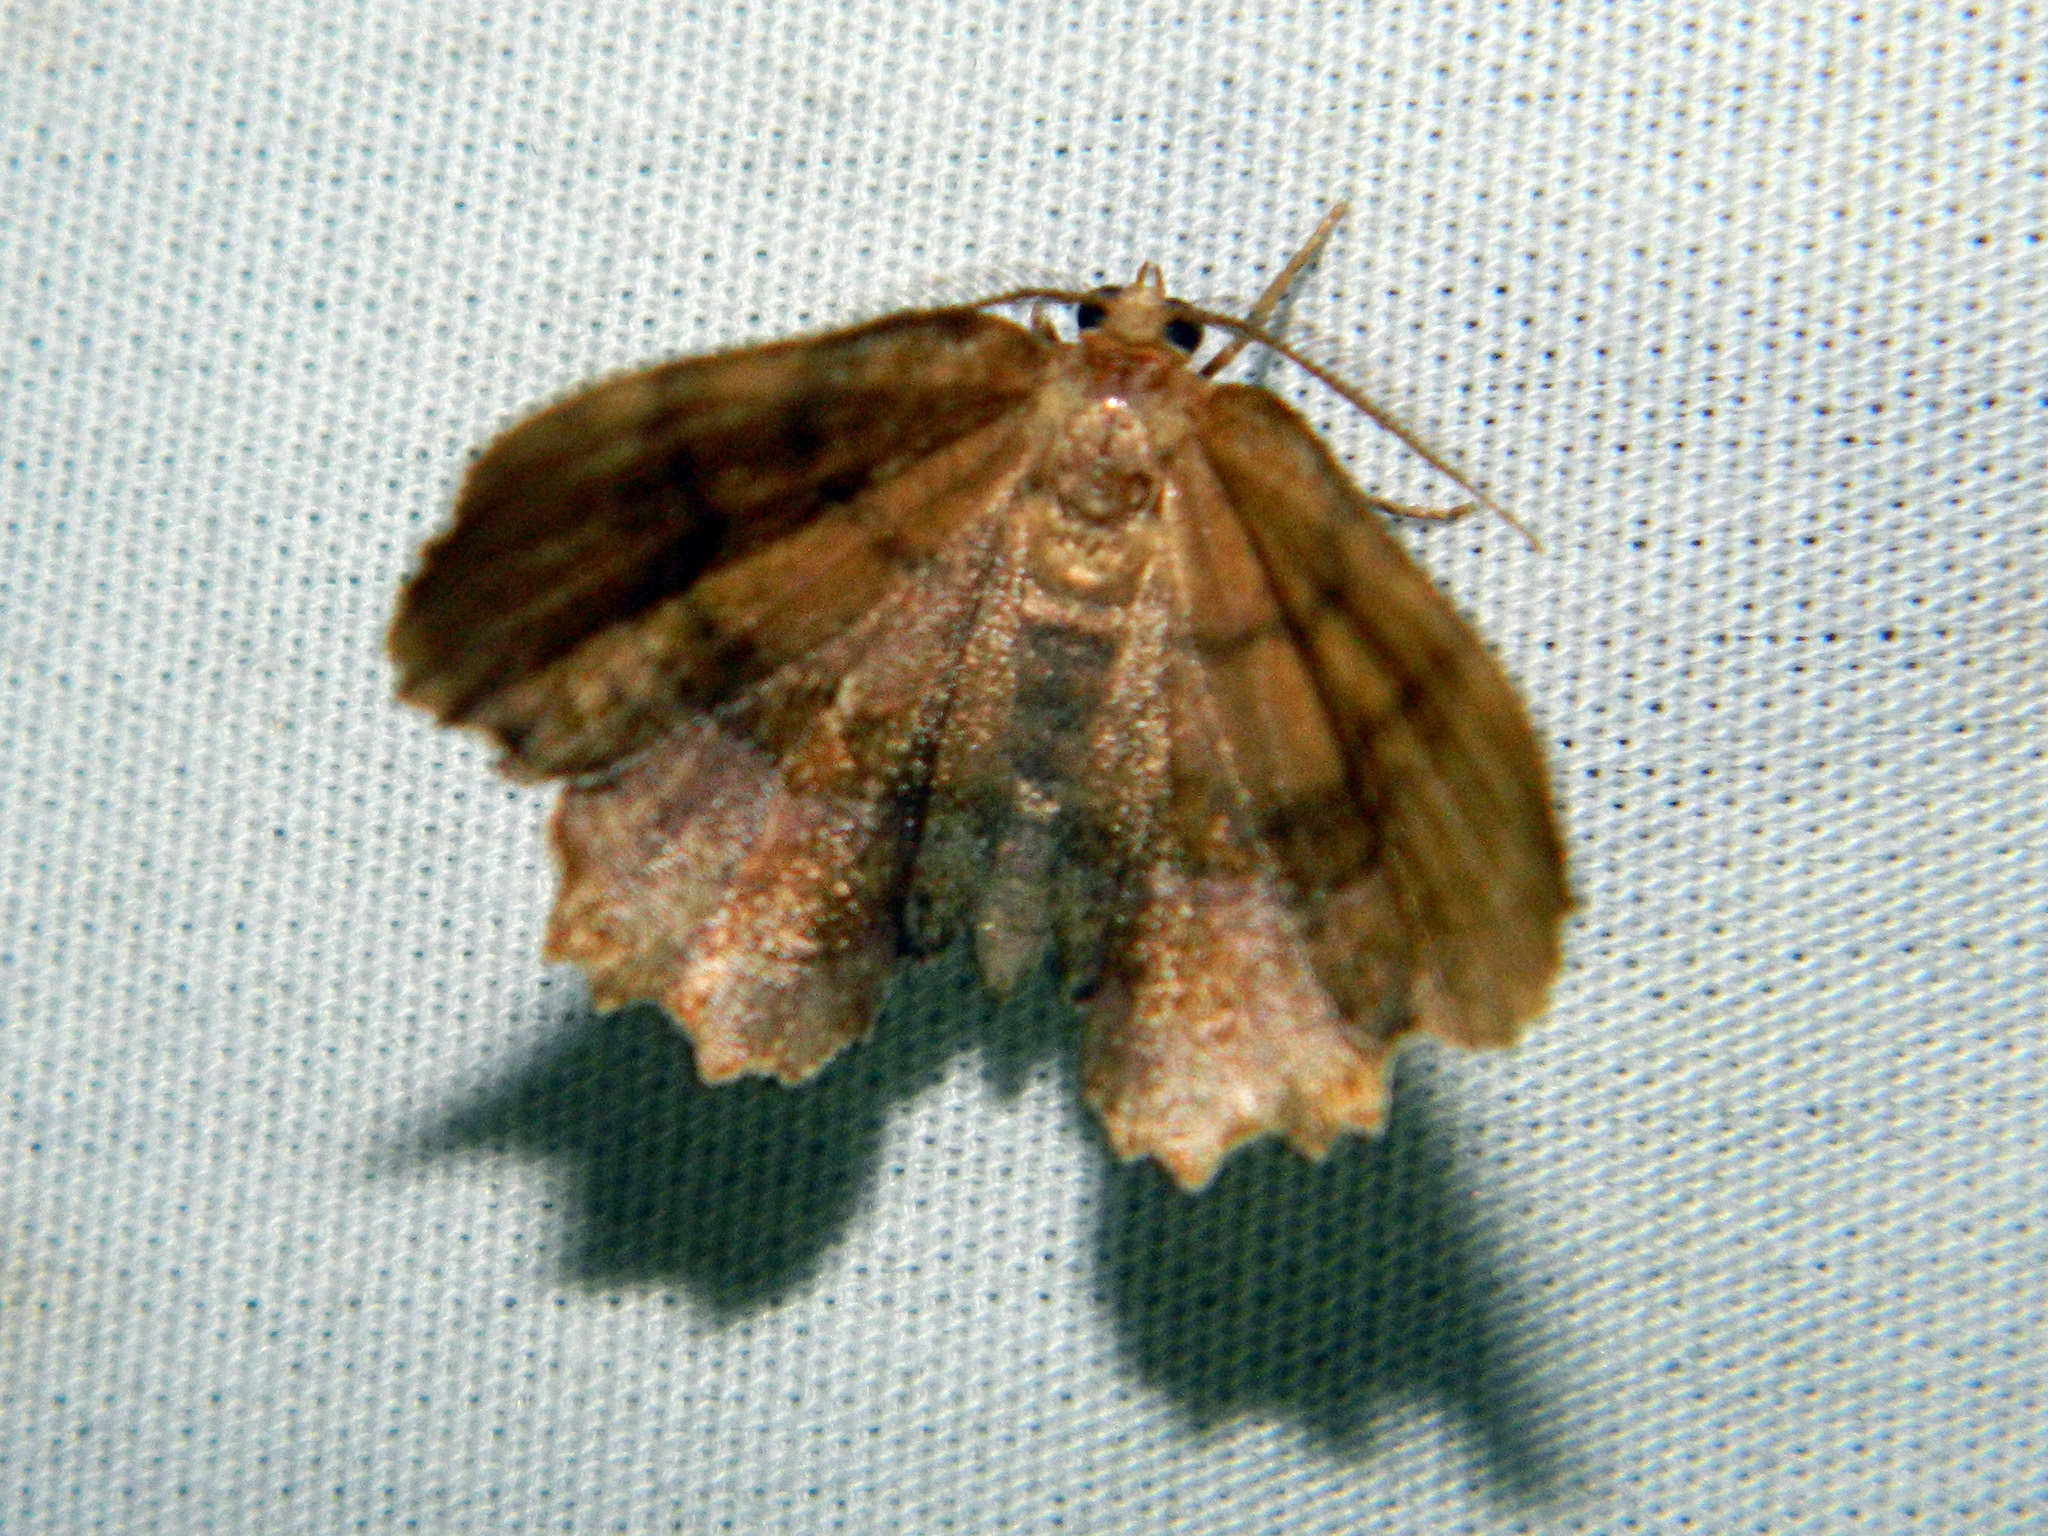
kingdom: Animalia
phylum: Arthropoda
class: Insecta
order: Lepidoptera
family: Geometridae
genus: Cepphis
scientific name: Cepphis armataria
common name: Scallop moth
